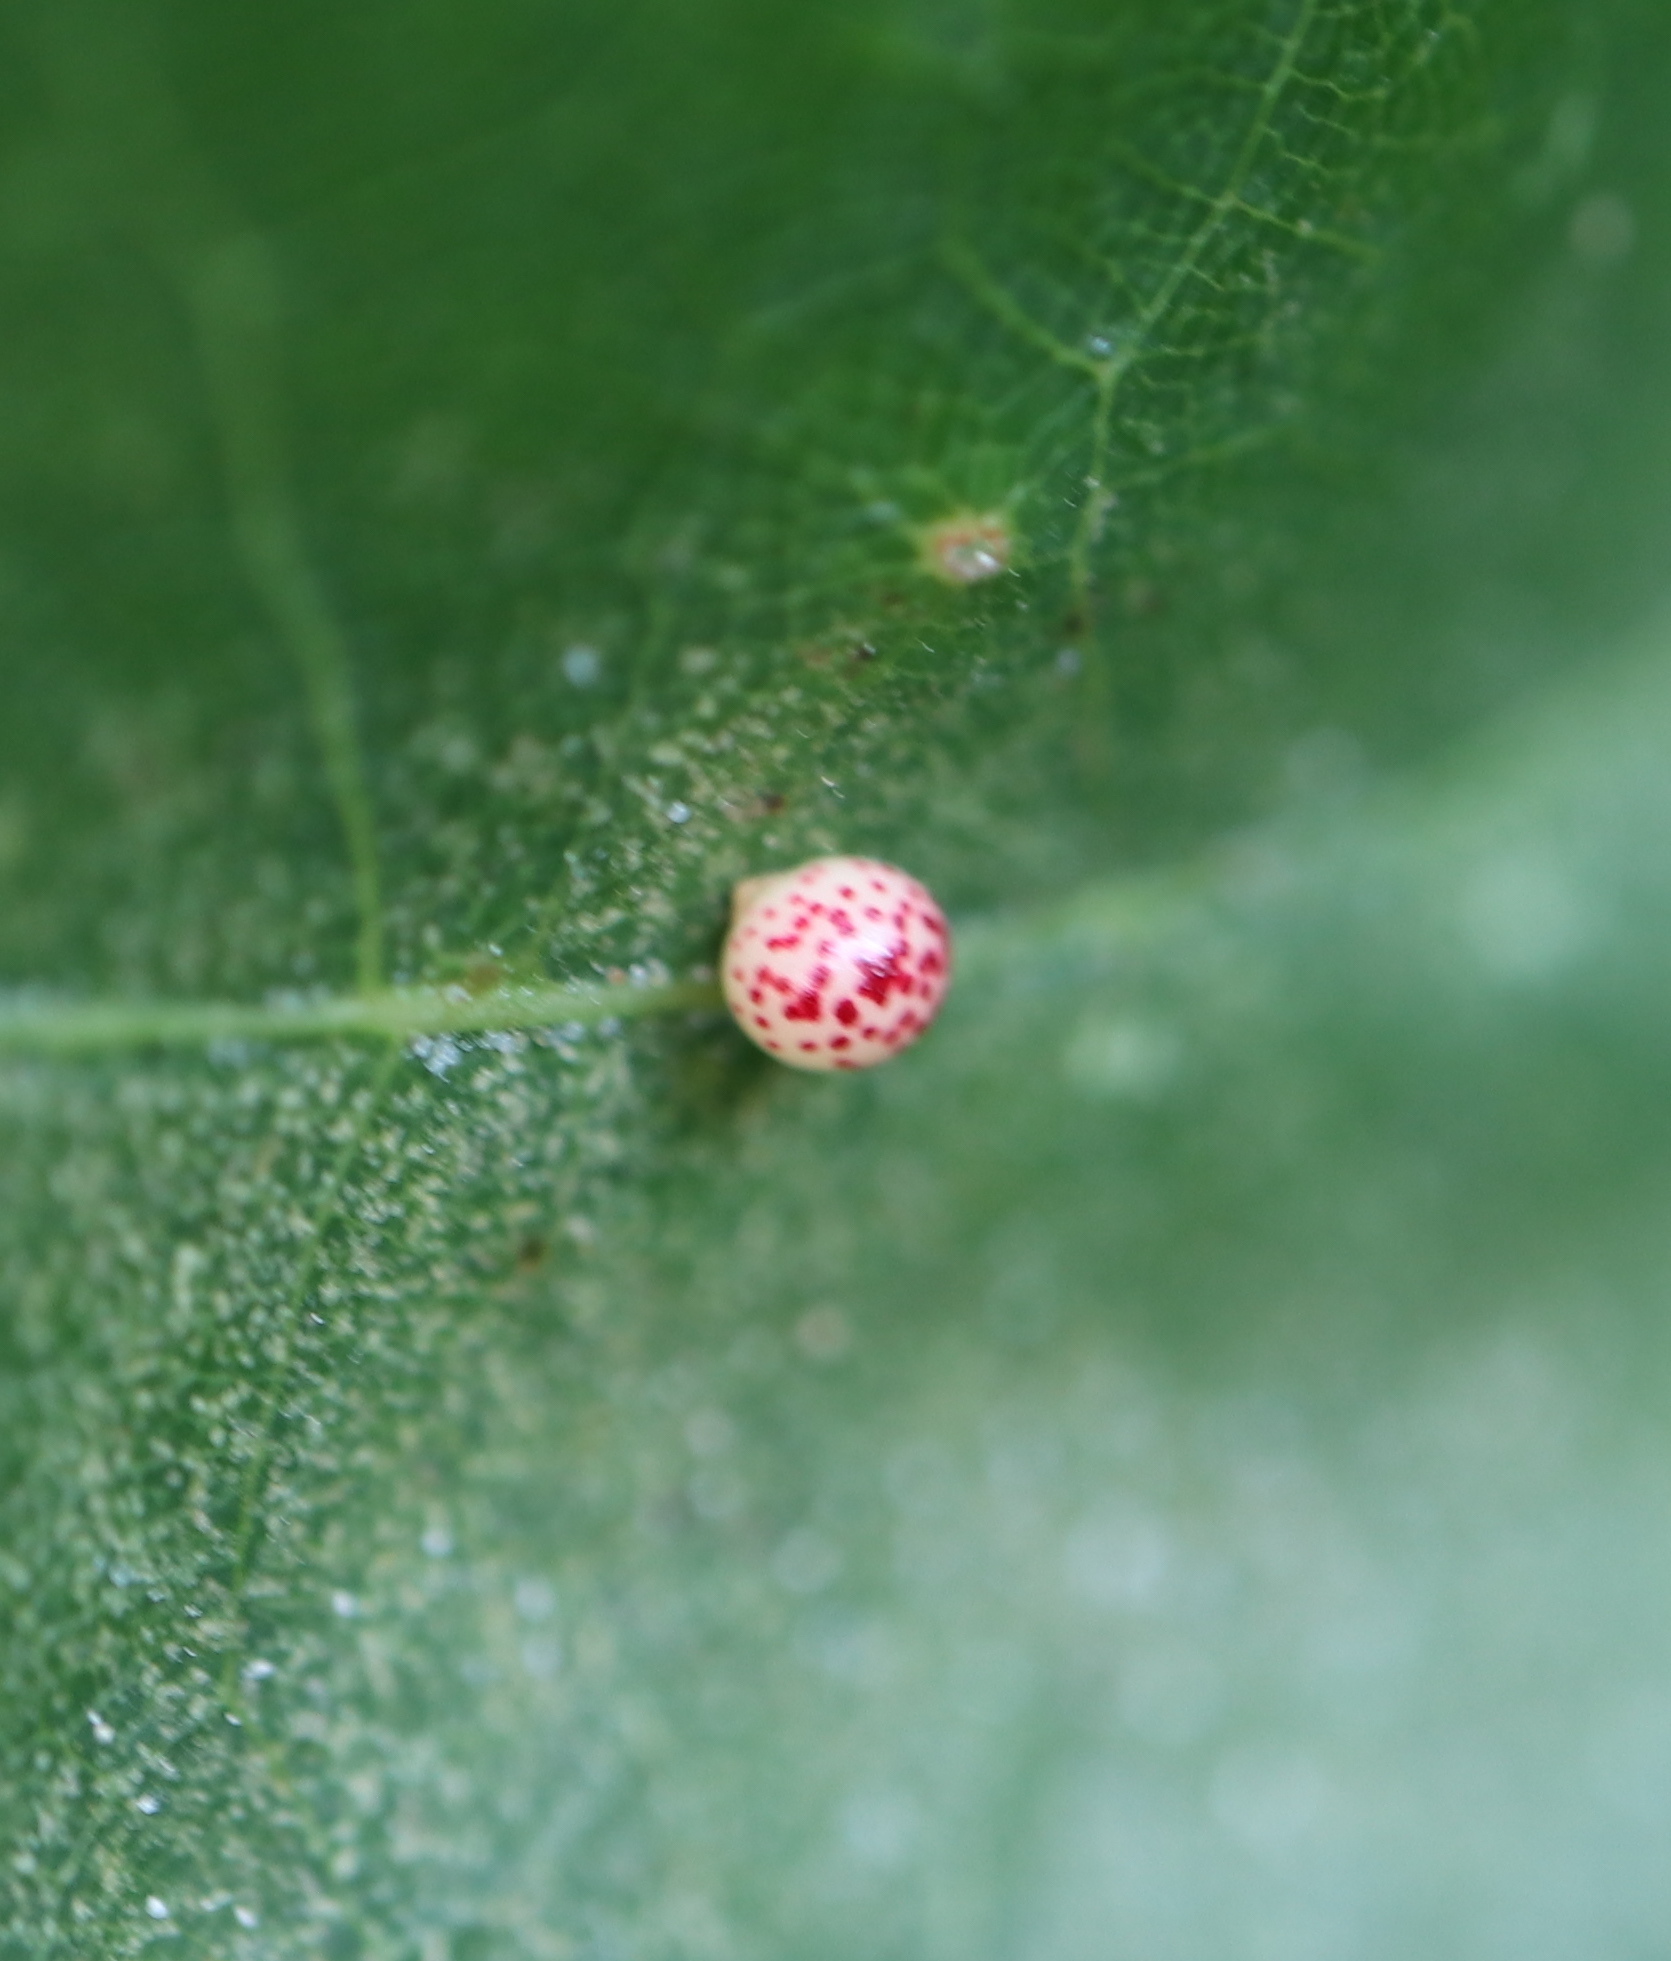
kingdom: Animalia
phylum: Arthropoda
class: Insecta
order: Hymenoptera
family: Cynipidae
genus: Zopheroteras
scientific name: Zopheroteras
